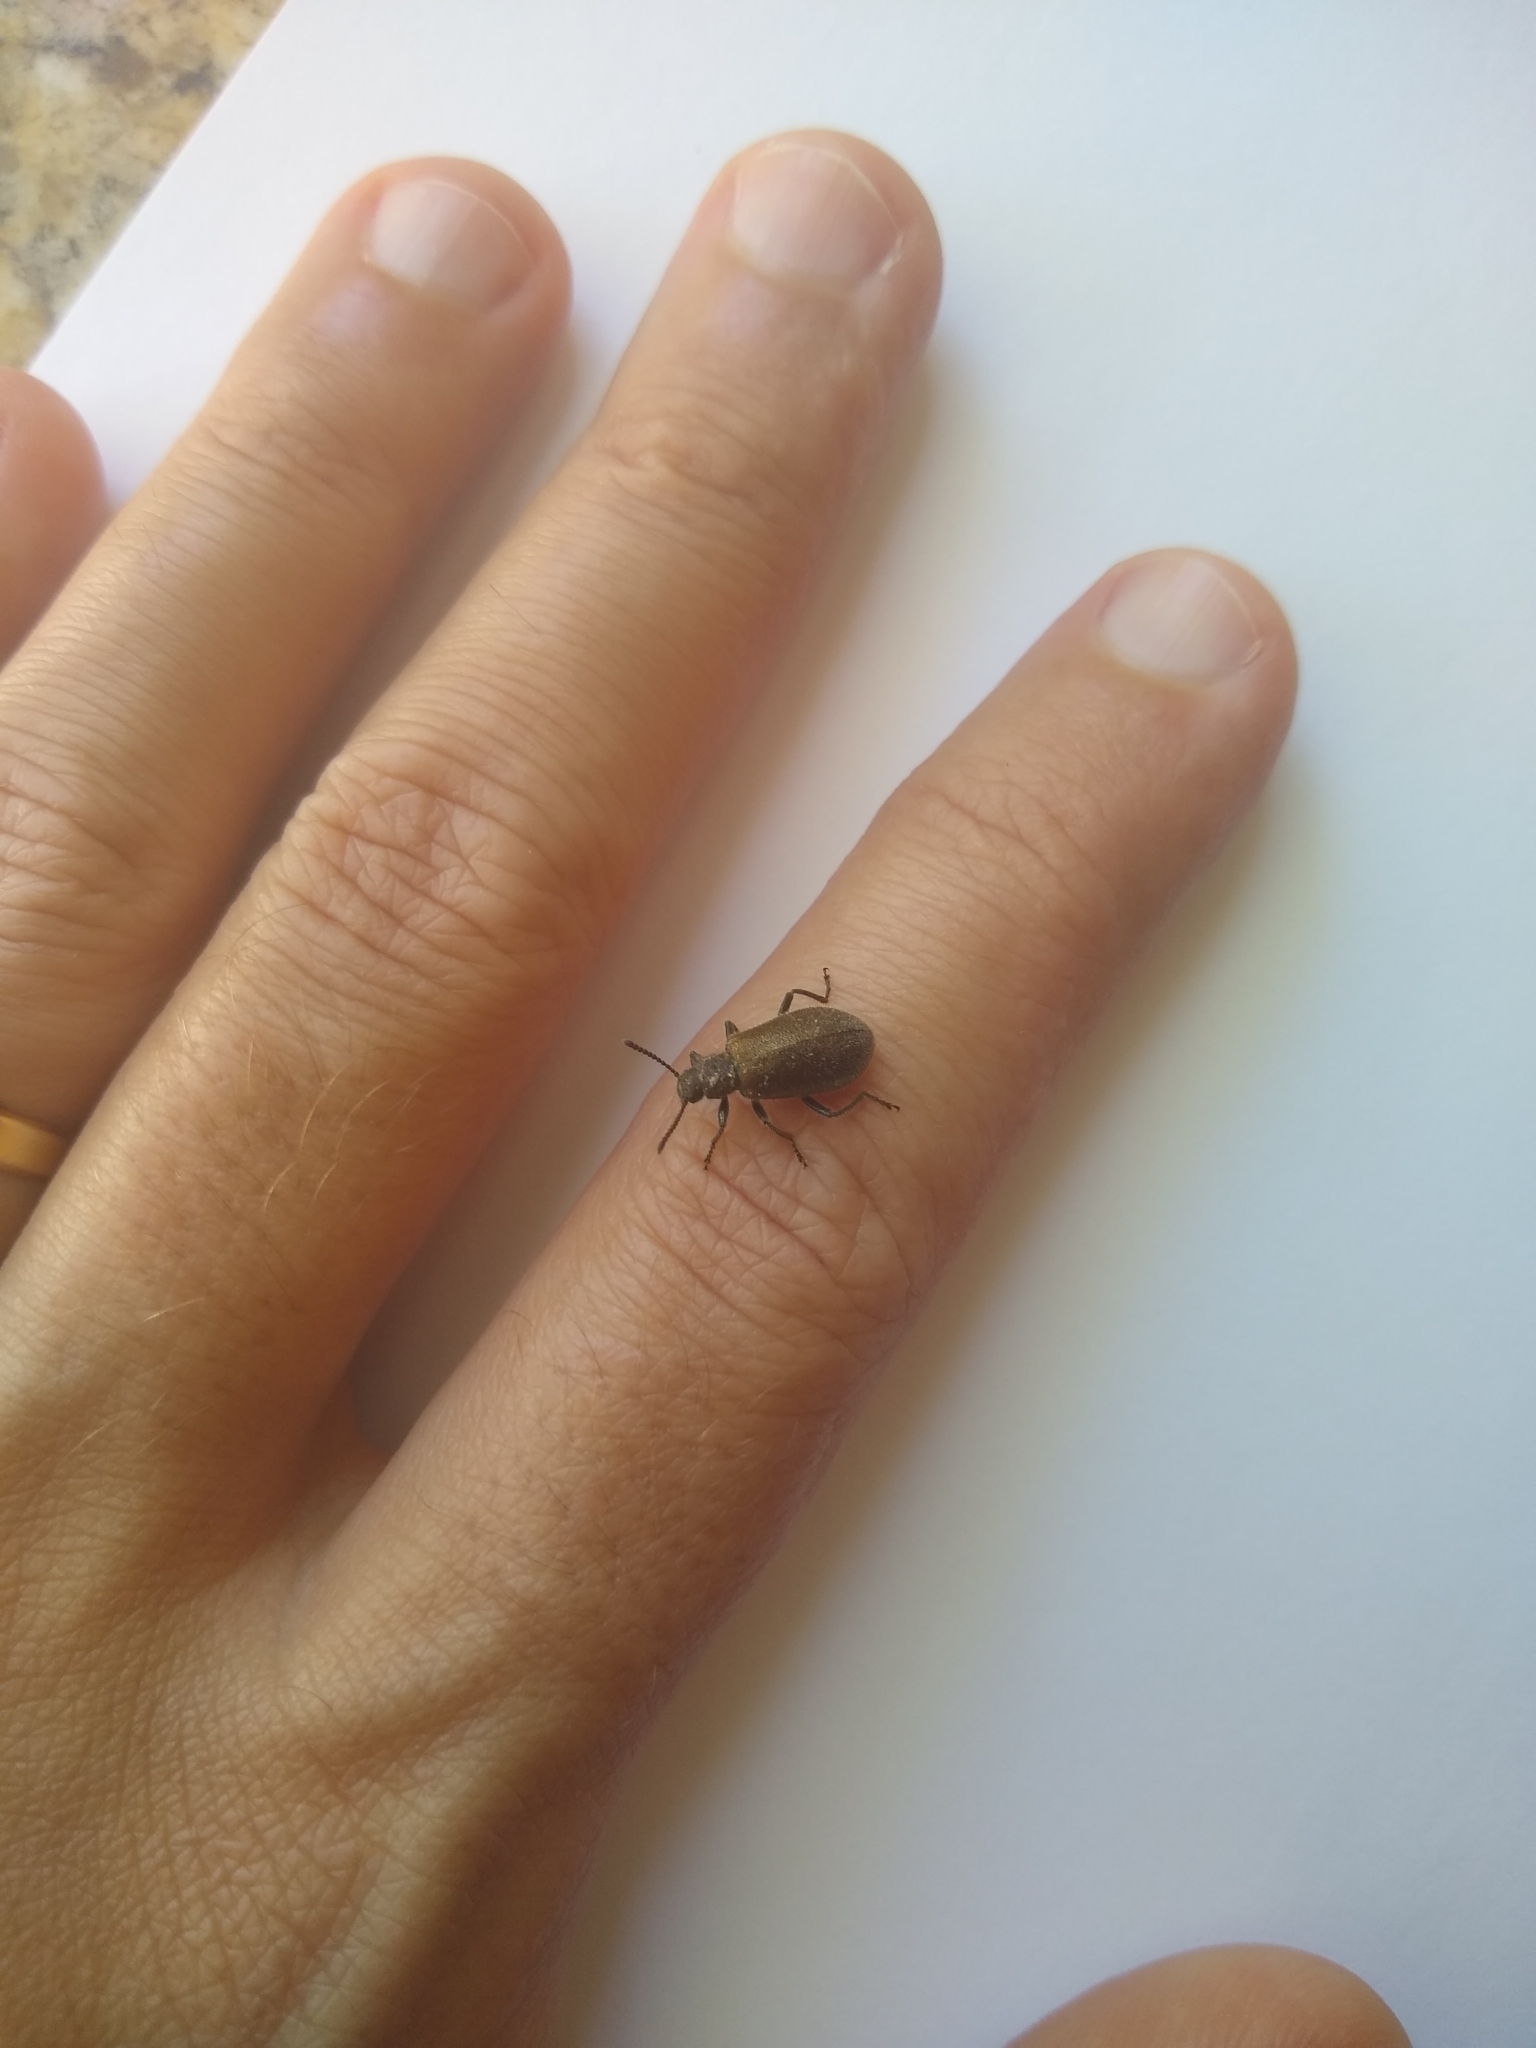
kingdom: Animalia
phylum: Arthropoda
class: Insecta
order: Coleoptera
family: Tenebrionidae
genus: Lagria
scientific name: Lagria villosa
